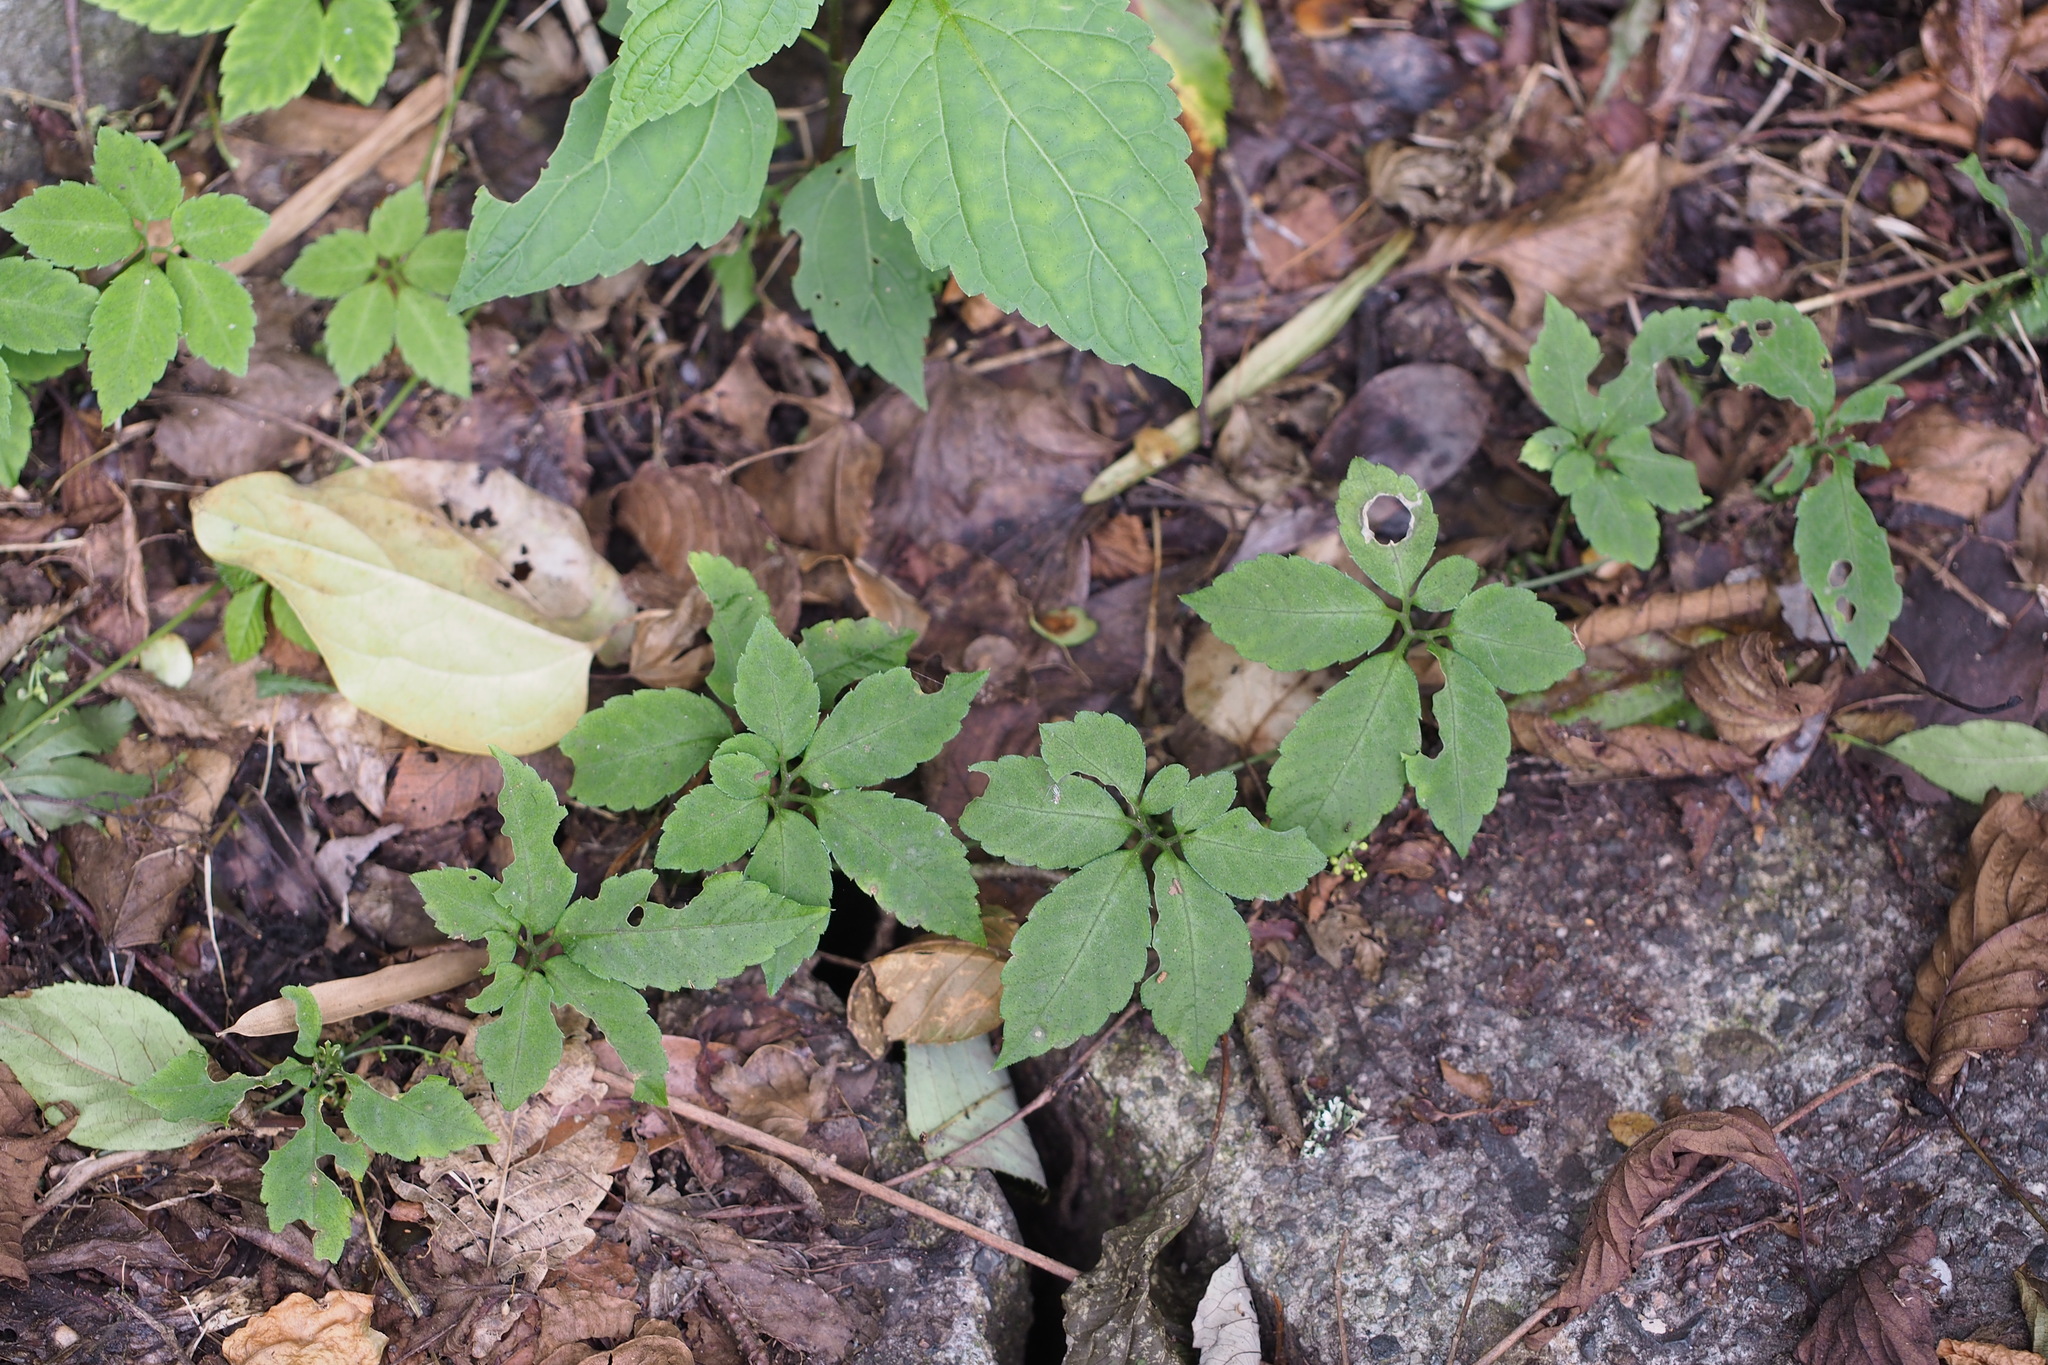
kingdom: Plantae
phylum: Tracheophyta
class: Magnoliopsida
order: Cucurbitales
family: Cucurbitaceae
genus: Gynostemma
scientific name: Gynostemma pentaphyllum
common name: Gynostemma
